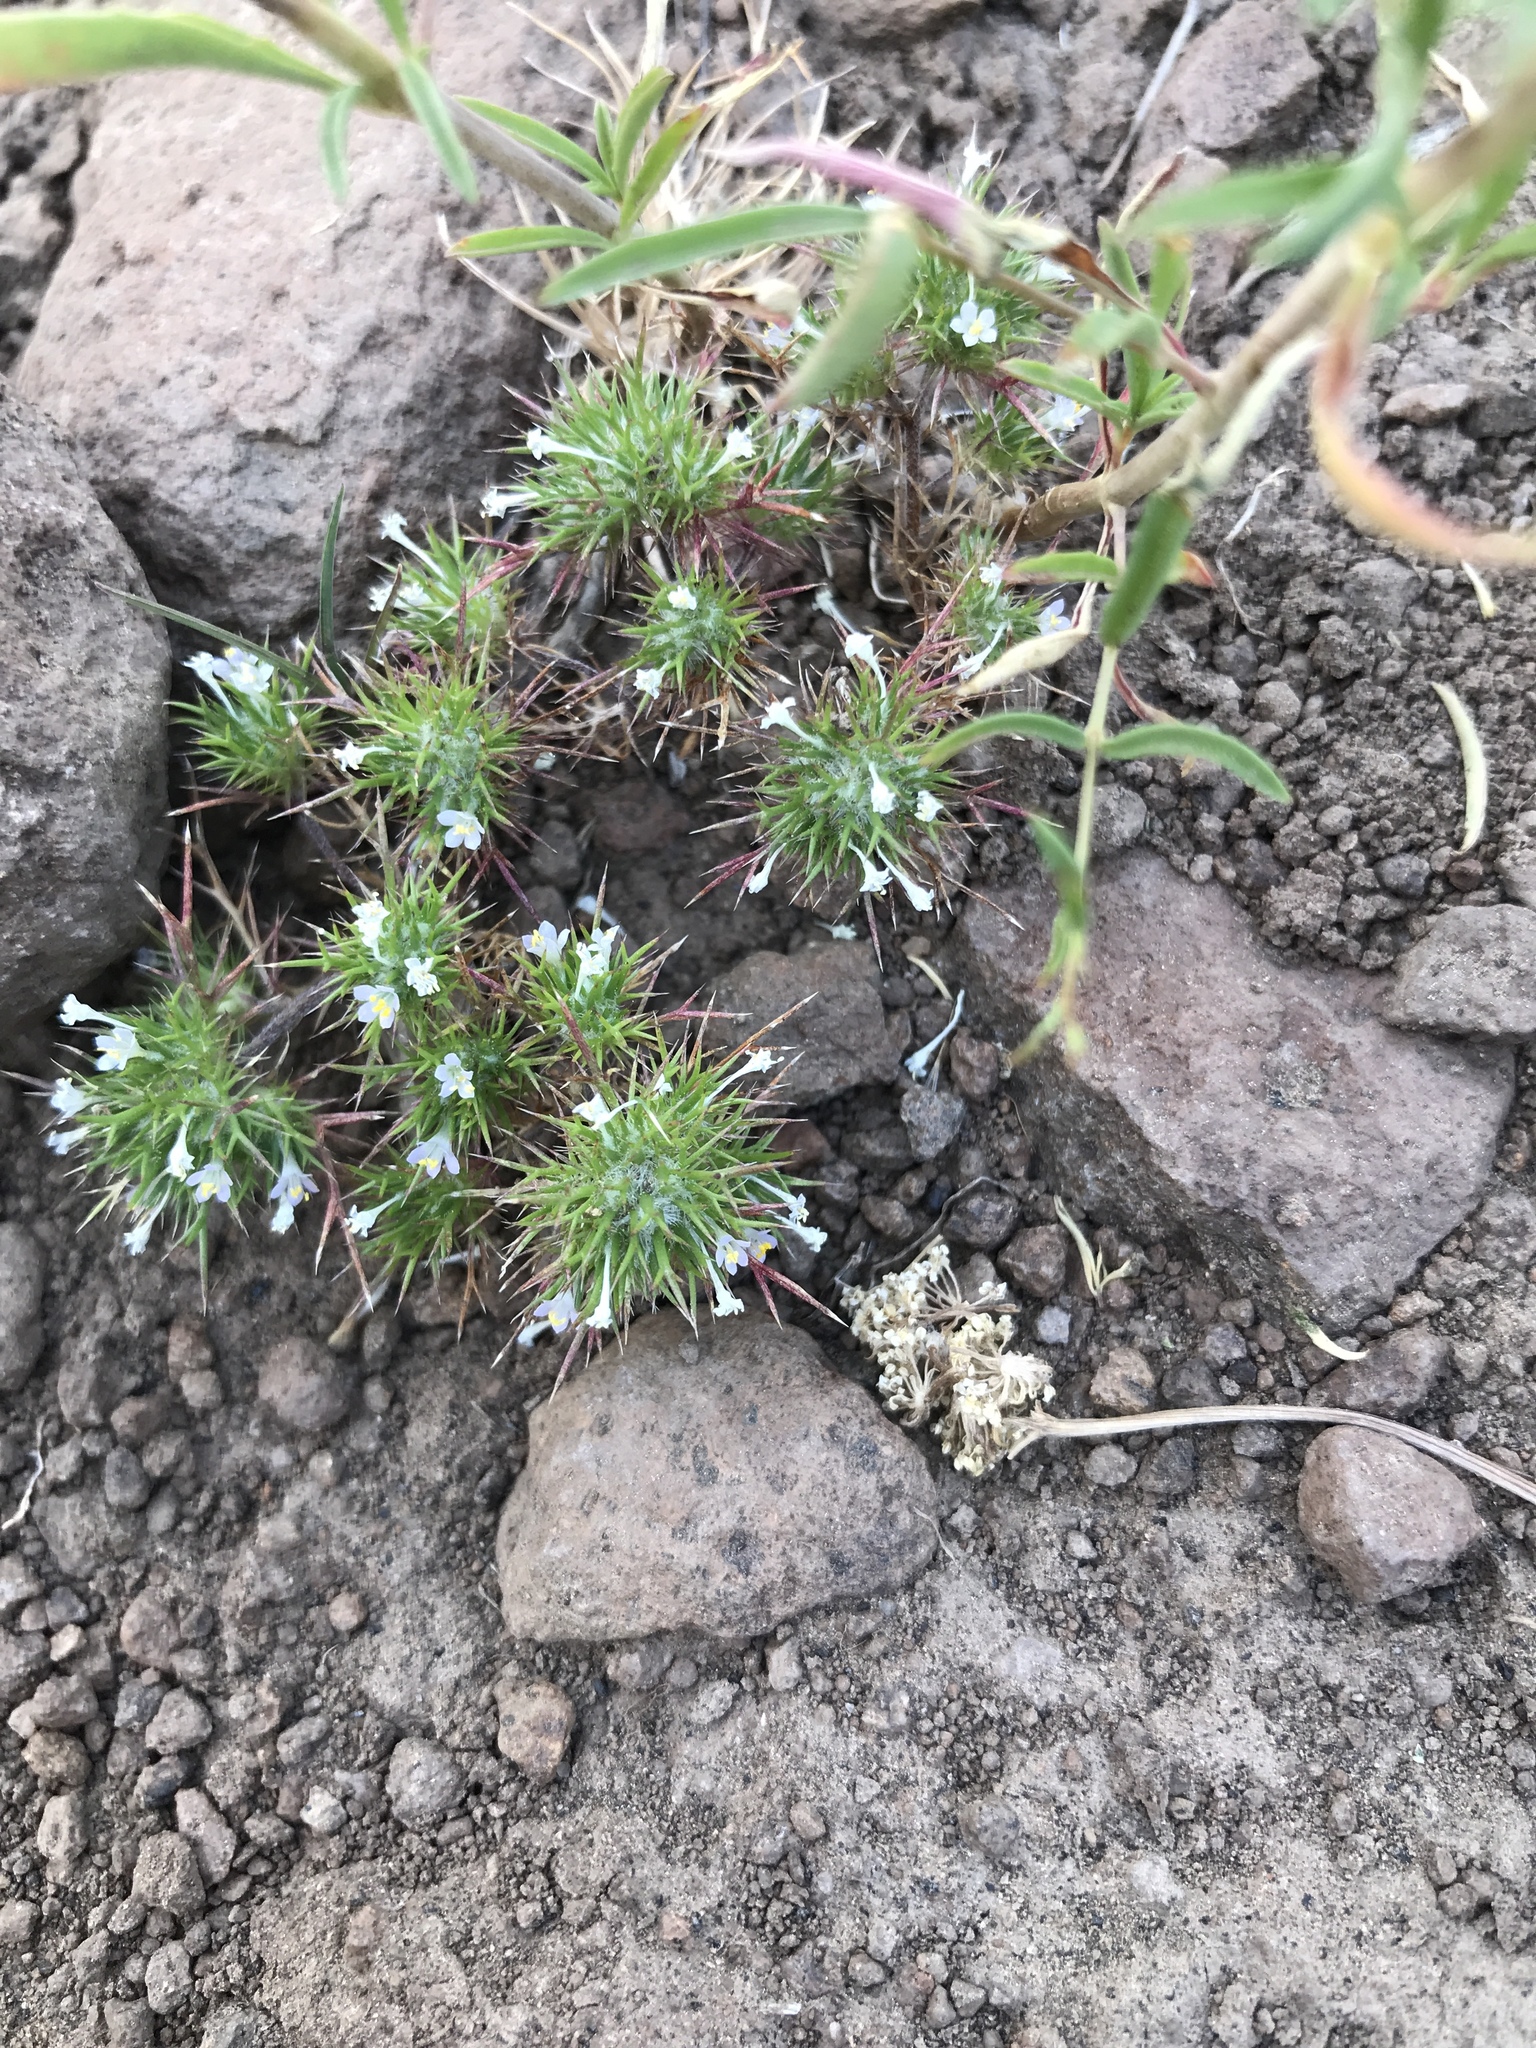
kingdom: Plantae
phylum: Tracheophyta
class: Magnoliopsida
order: Ericales
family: Polemoniaceae
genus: Navarretia
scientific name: Navarretia intertexta
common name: Needle-leaved navarretia
